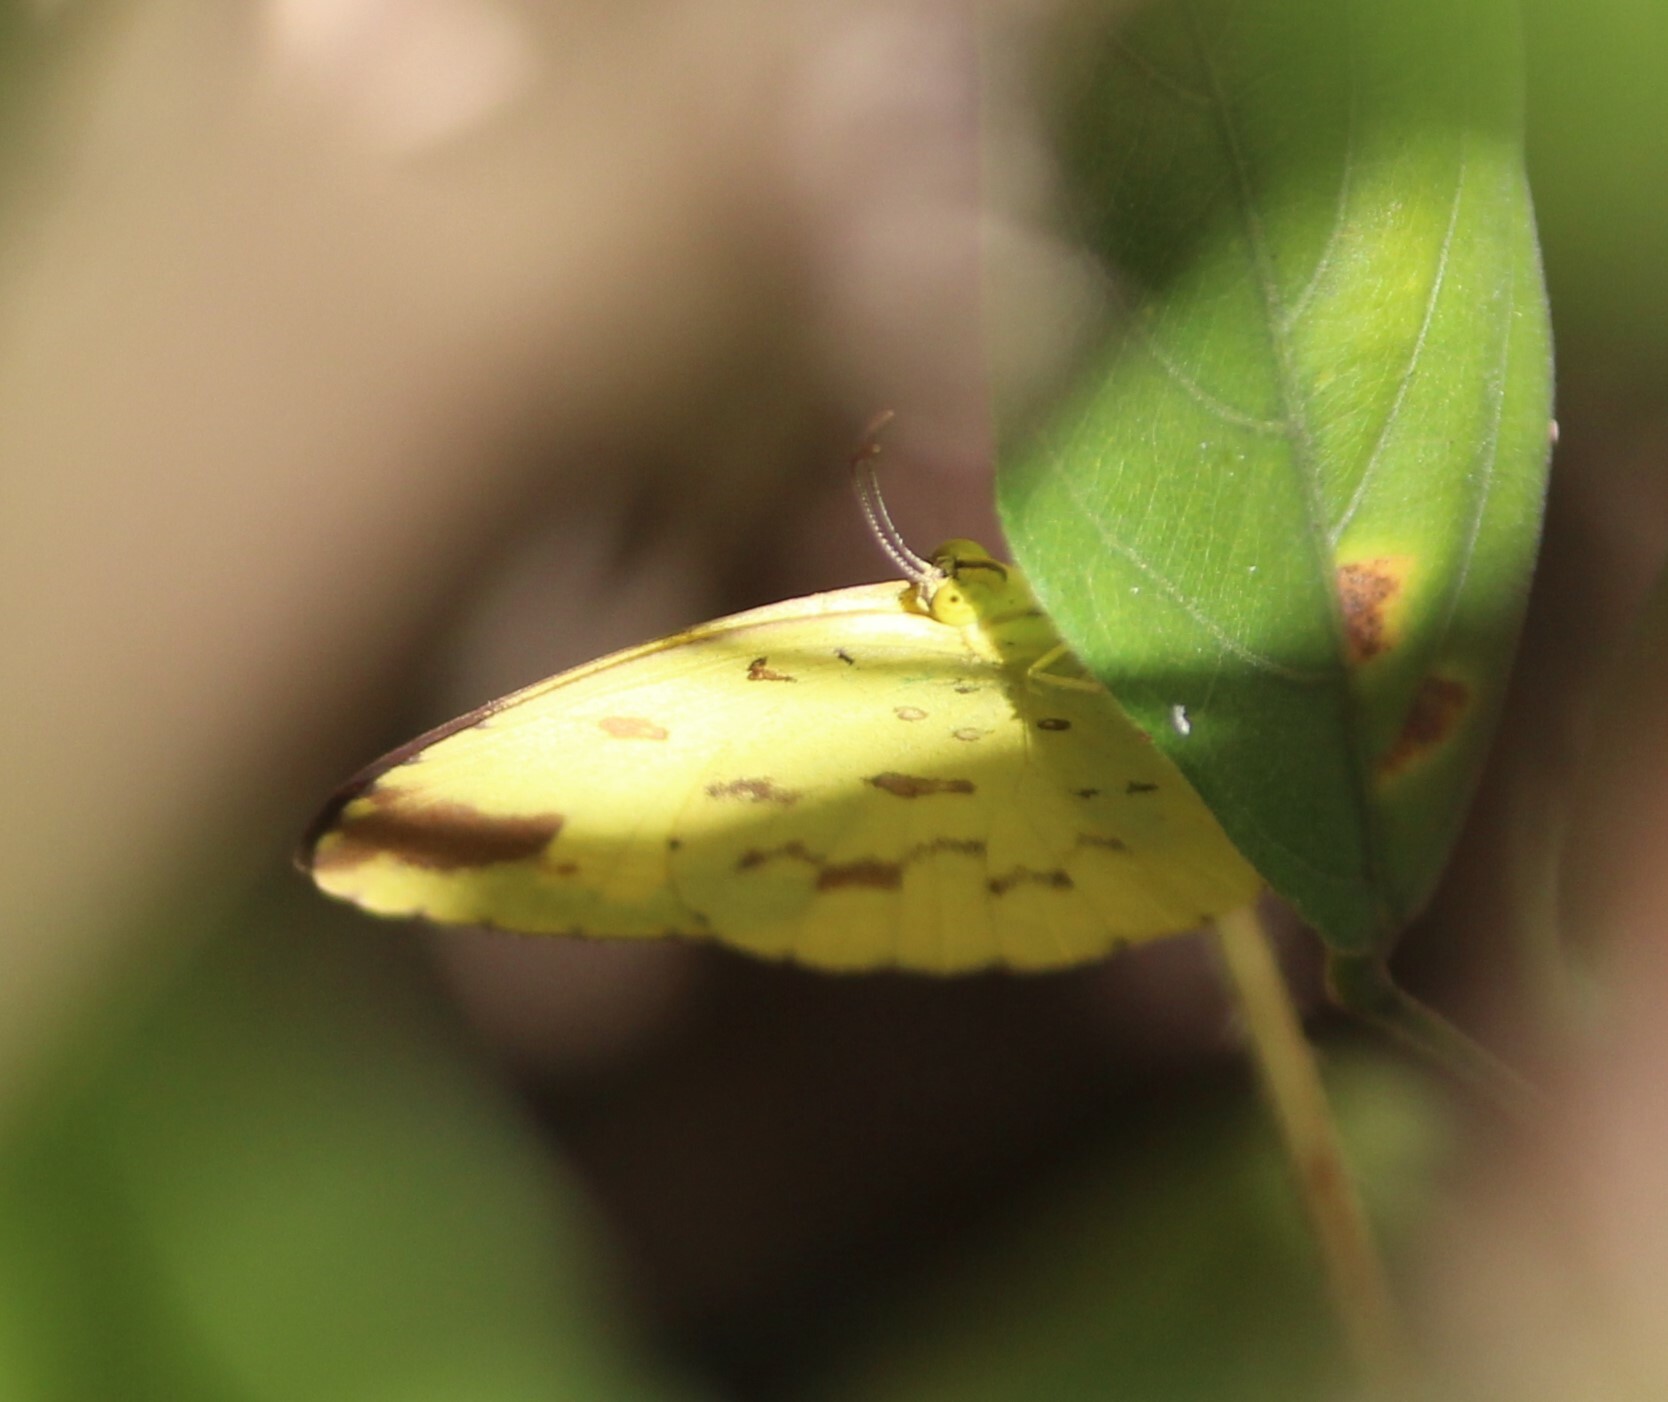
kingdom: Animalia
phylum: Arthropoda
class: Insecta
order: Lepidoptera
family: Pieridae
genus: Eurema
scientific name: Eurema hecabe
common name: Pale grass yellow
